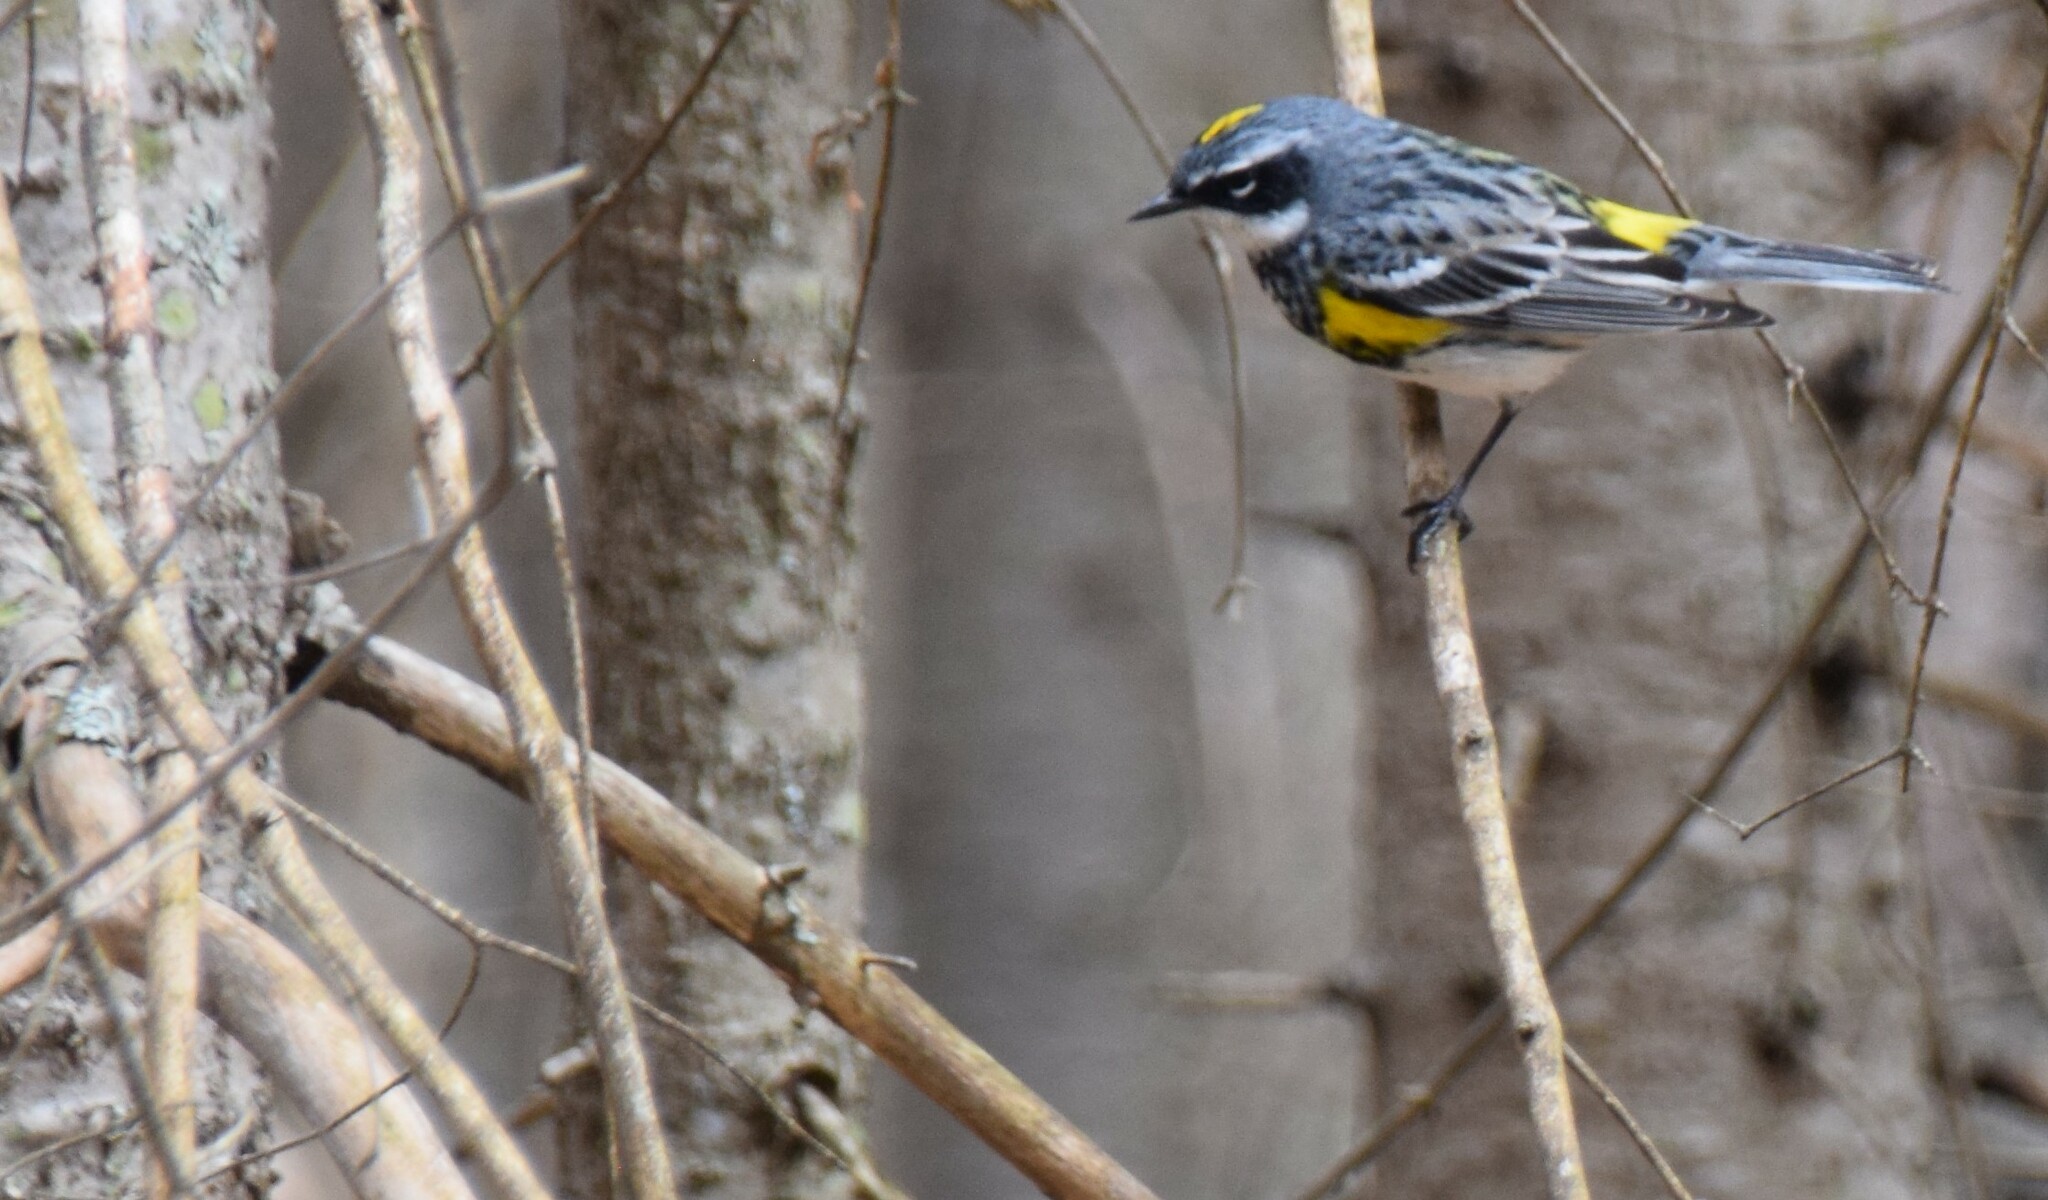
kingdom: Animalia
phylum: Chordata
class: Aves
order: Passeriformes
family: Parulidae
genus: Setophaga
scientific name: Setophaga coronata
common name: Myrtle warbler
